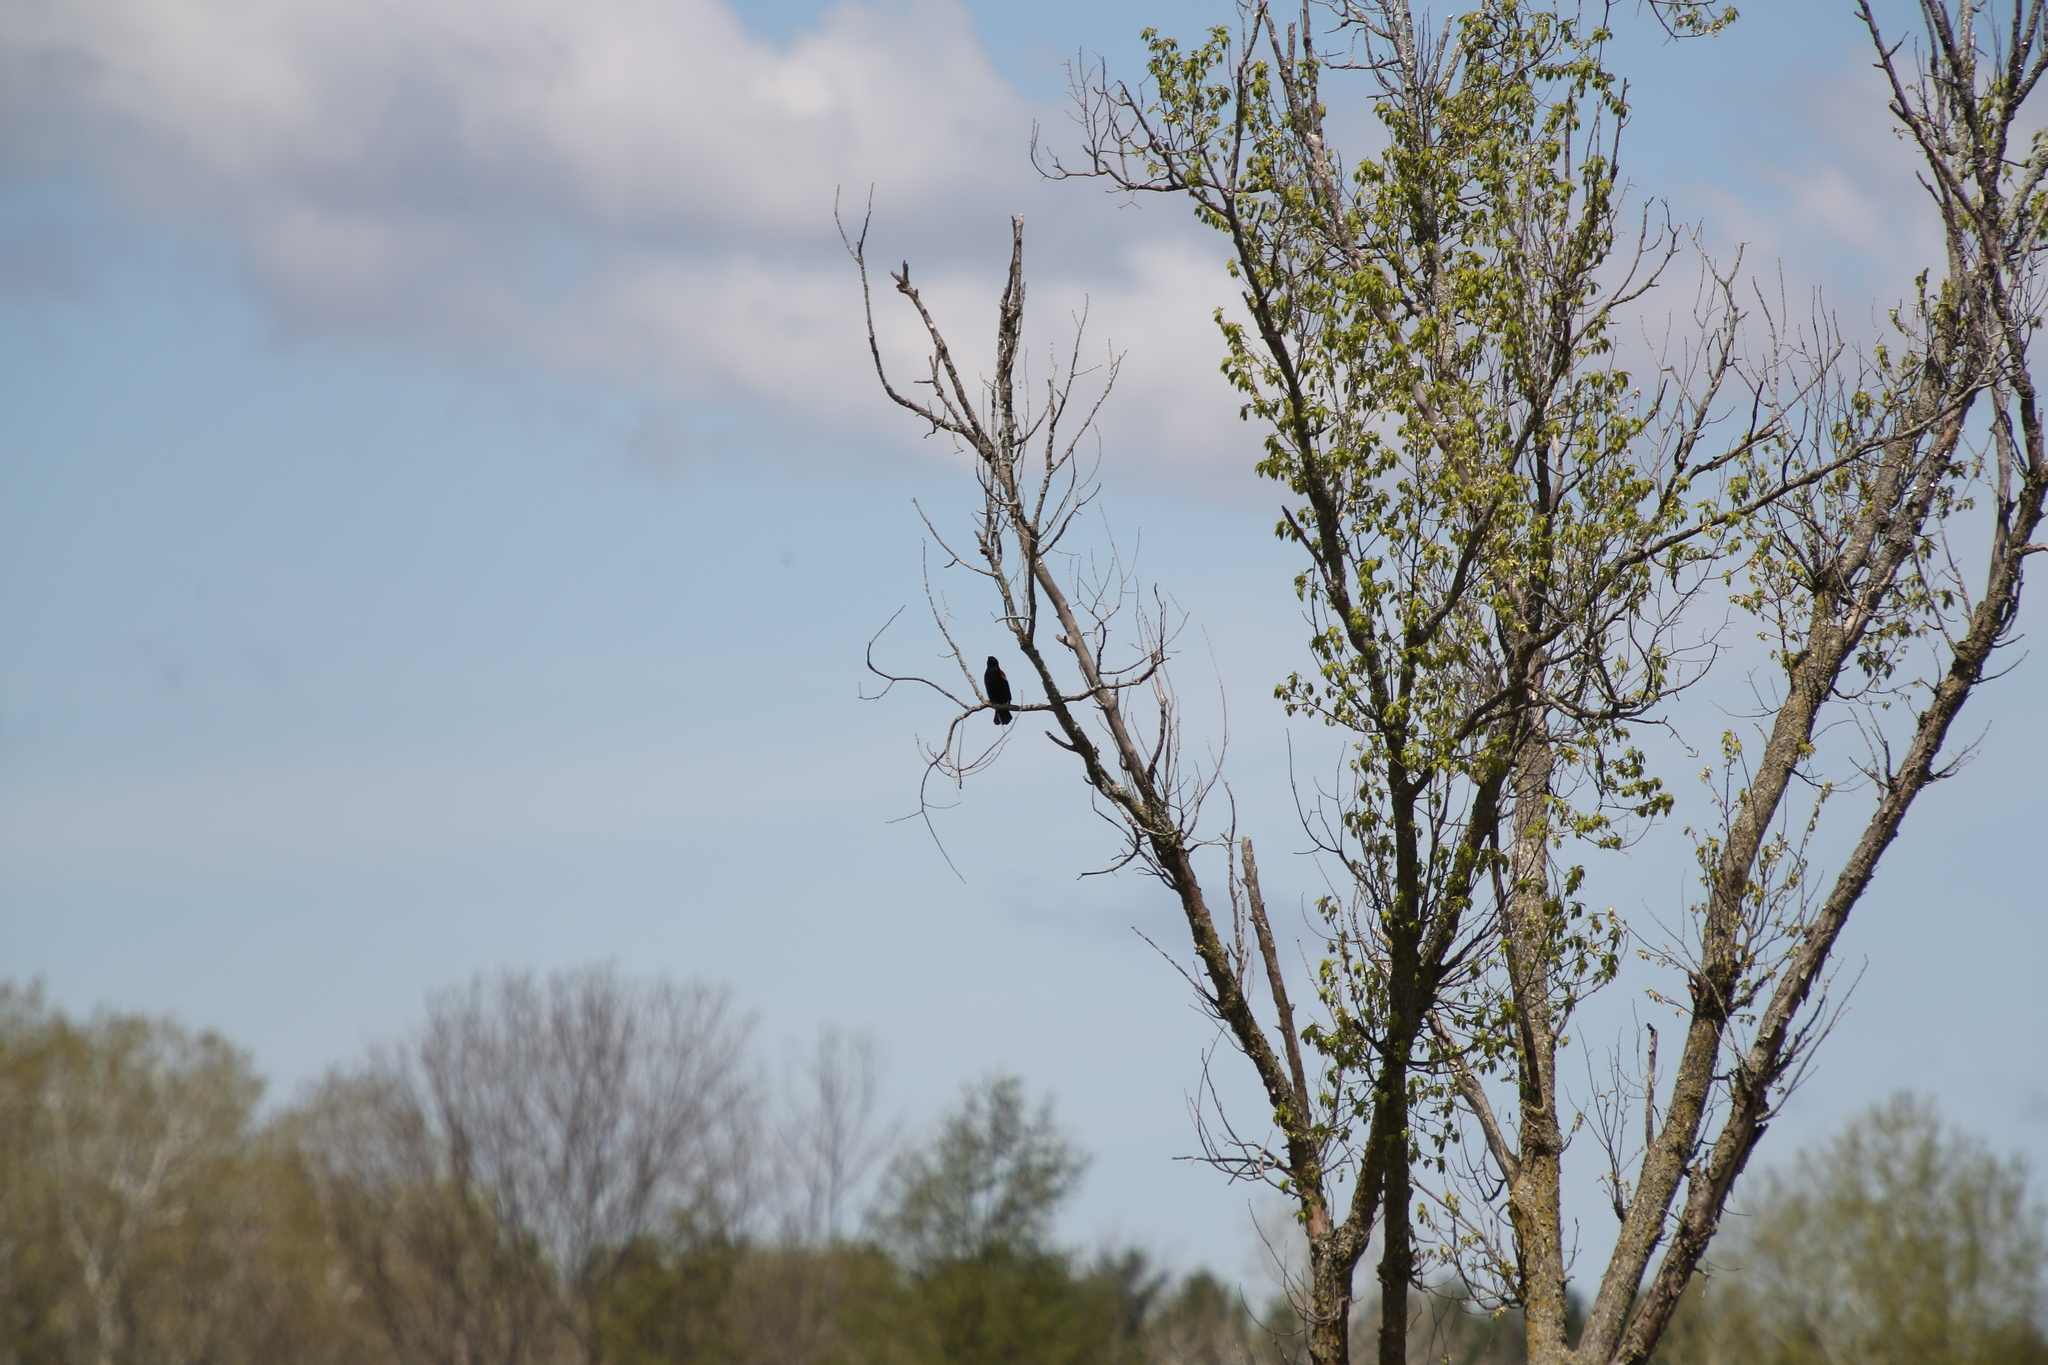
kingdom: Animalia
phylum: Chordata
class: Aves
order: Passeriformes
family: Icteridae
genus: Agelaius
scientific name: Agelaius phoeniceus
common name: Red-winged blackbird
